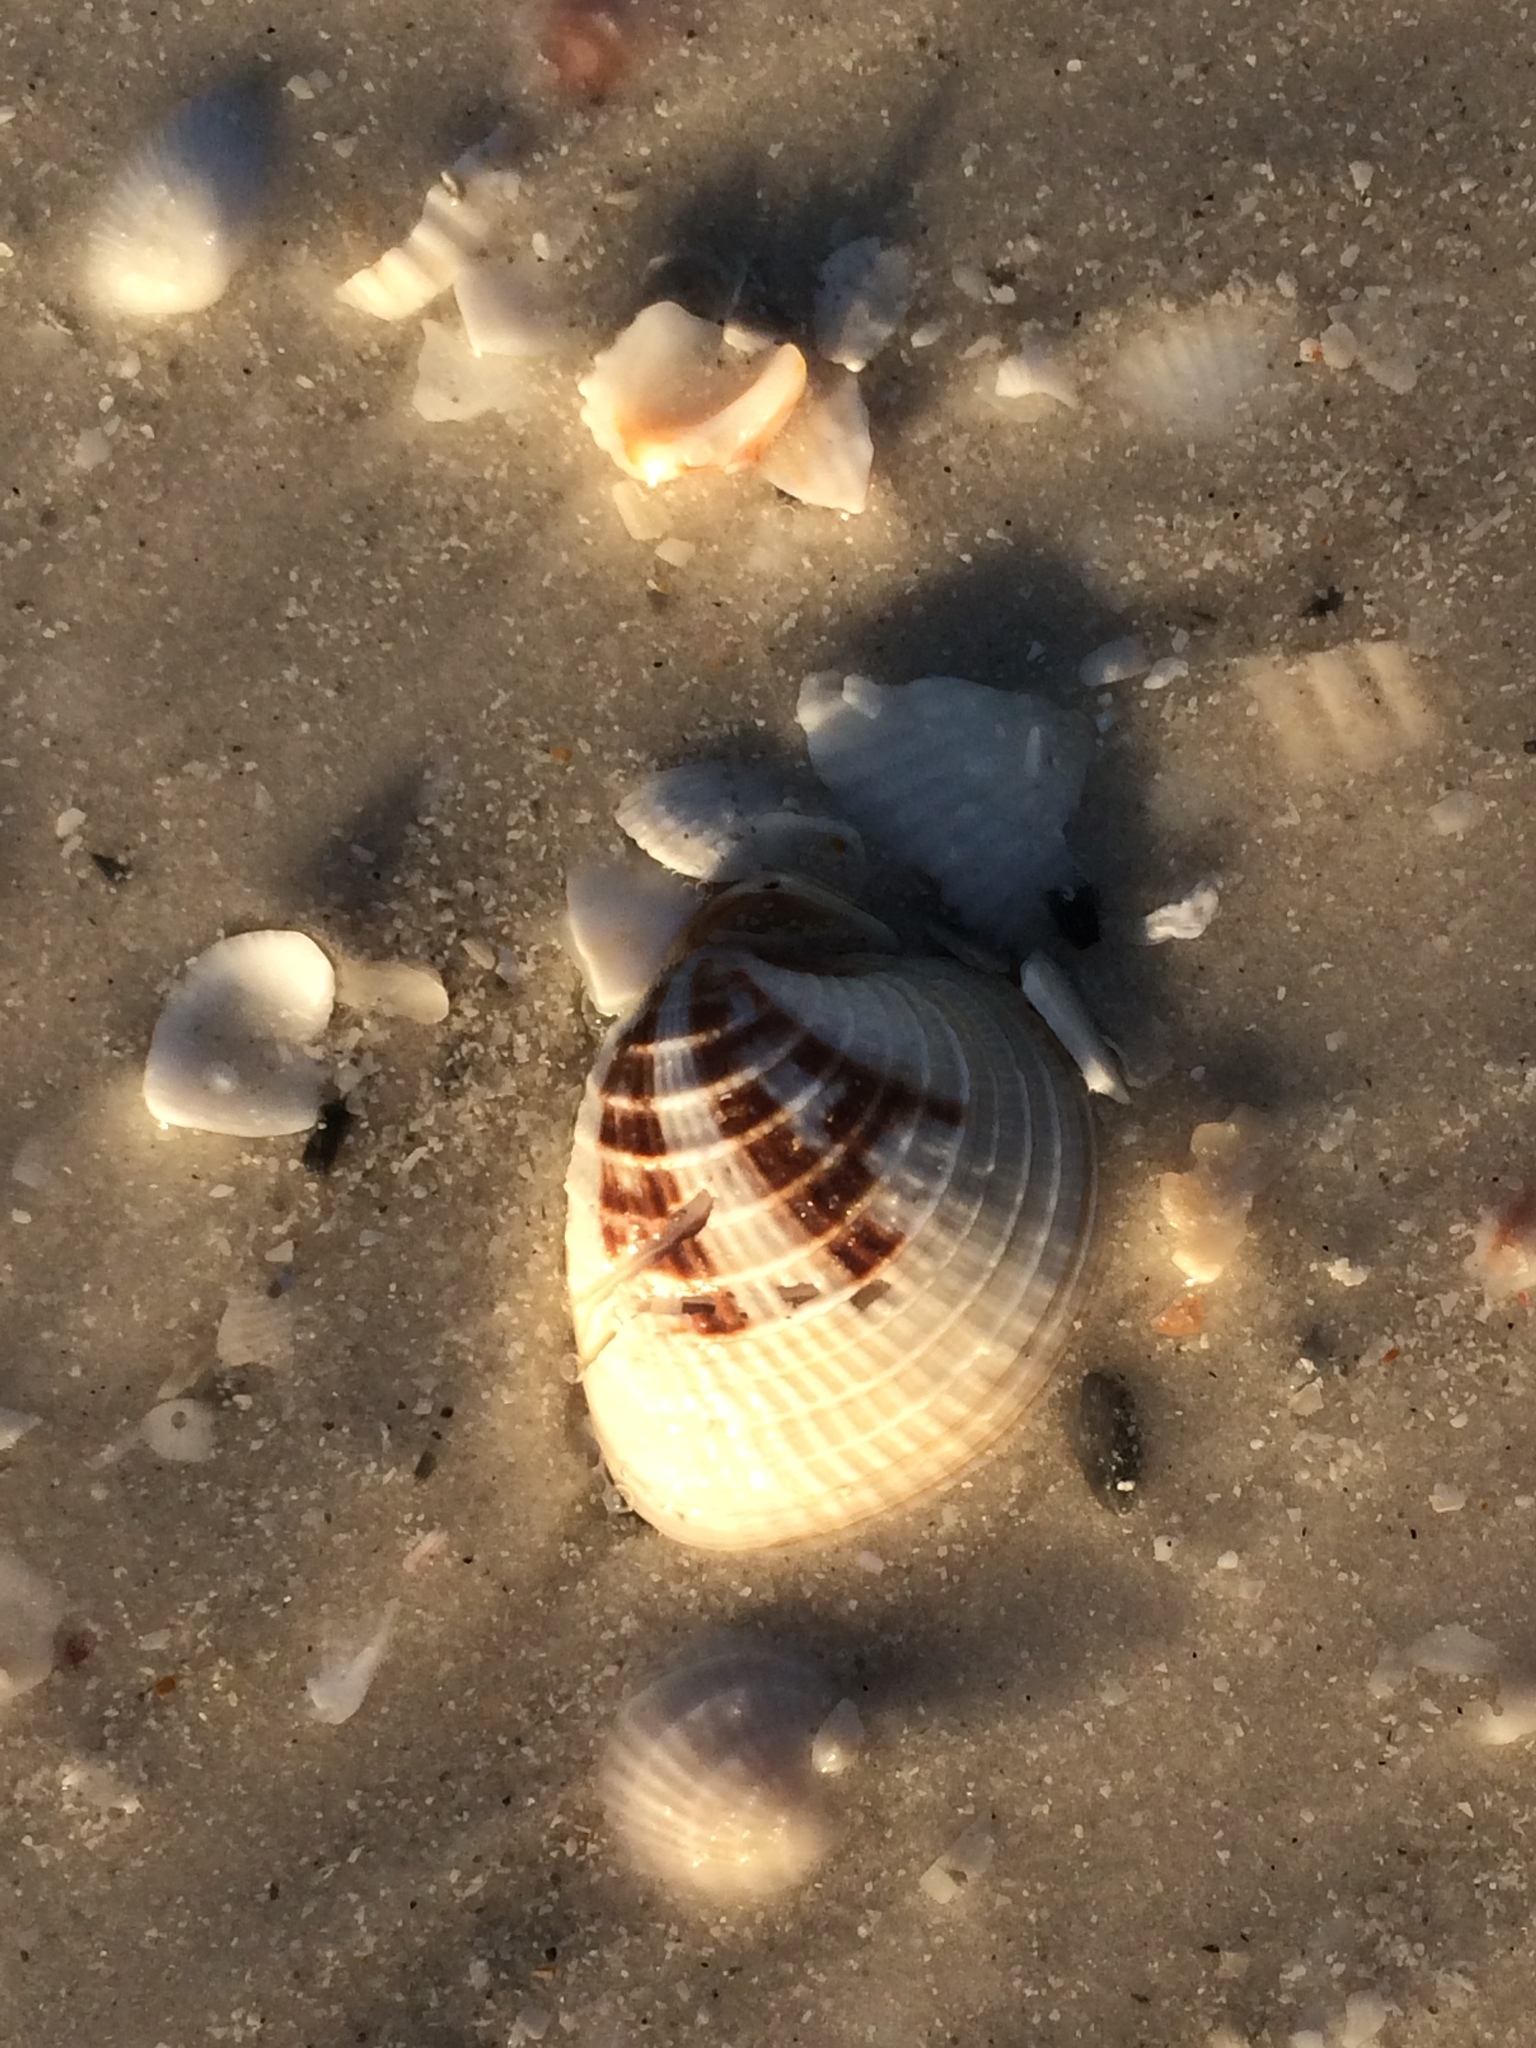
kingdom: Animalia
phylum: Mollusca
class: Bivalvia
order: Venerida
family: Veneridae
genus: Chione
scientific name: Chione elevata
